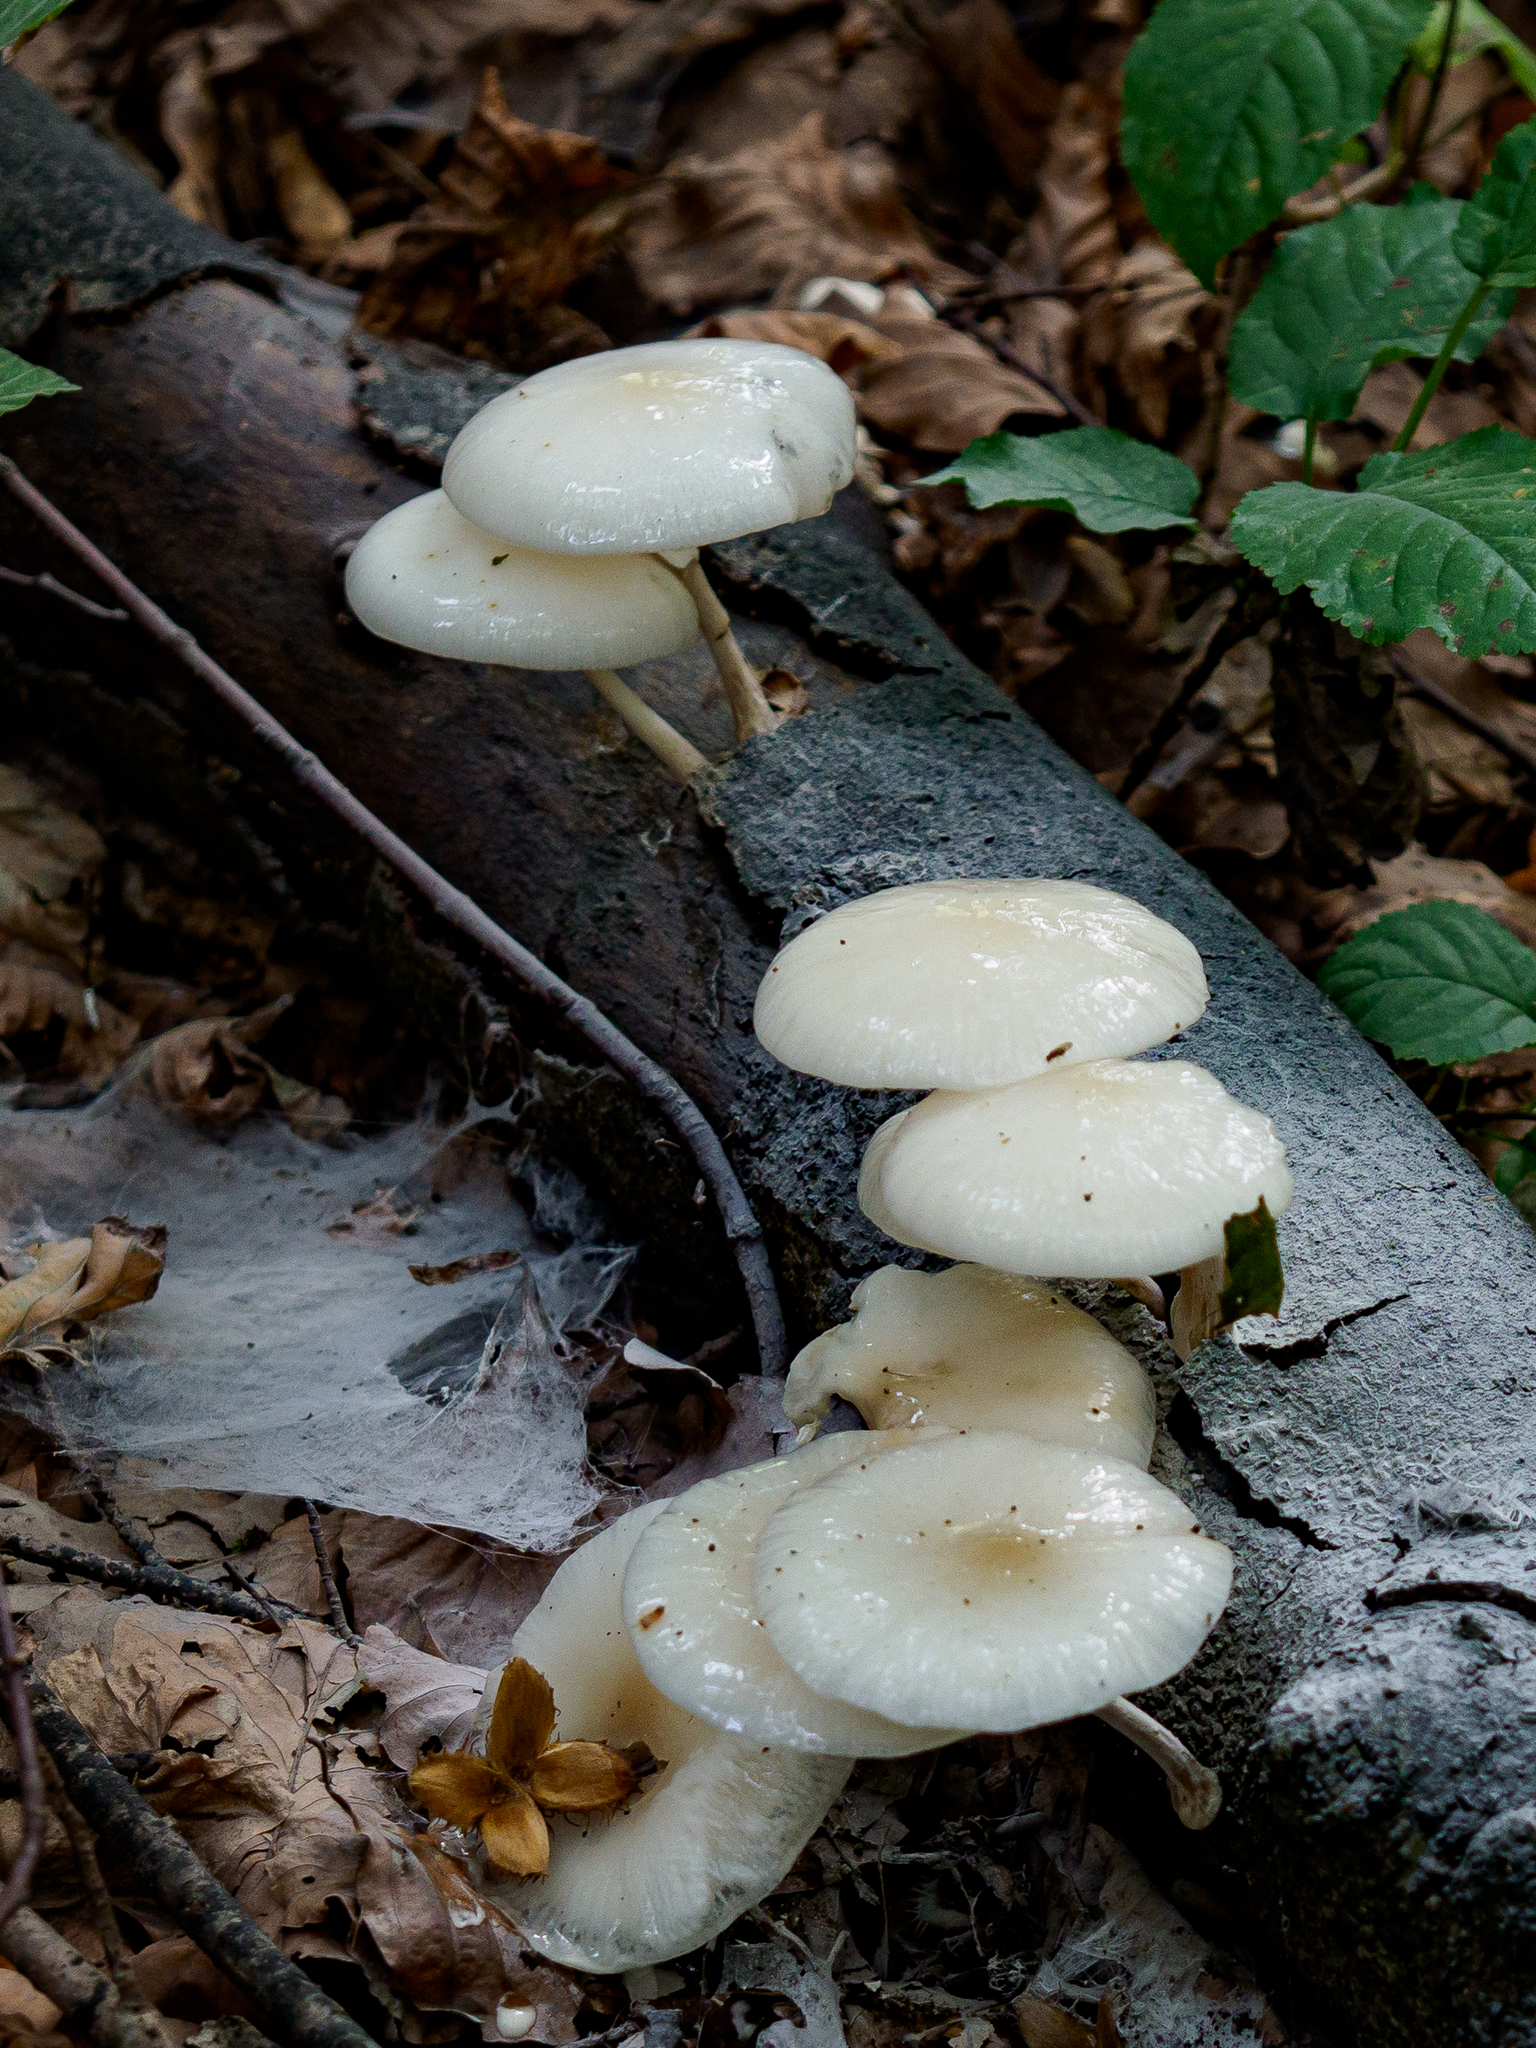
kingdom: Fungi
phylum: Basidiomycota
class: Agaricomycetes
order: Agaricales
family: Physalacriaceae
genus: Mucidula
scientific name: Mucidula mucida
